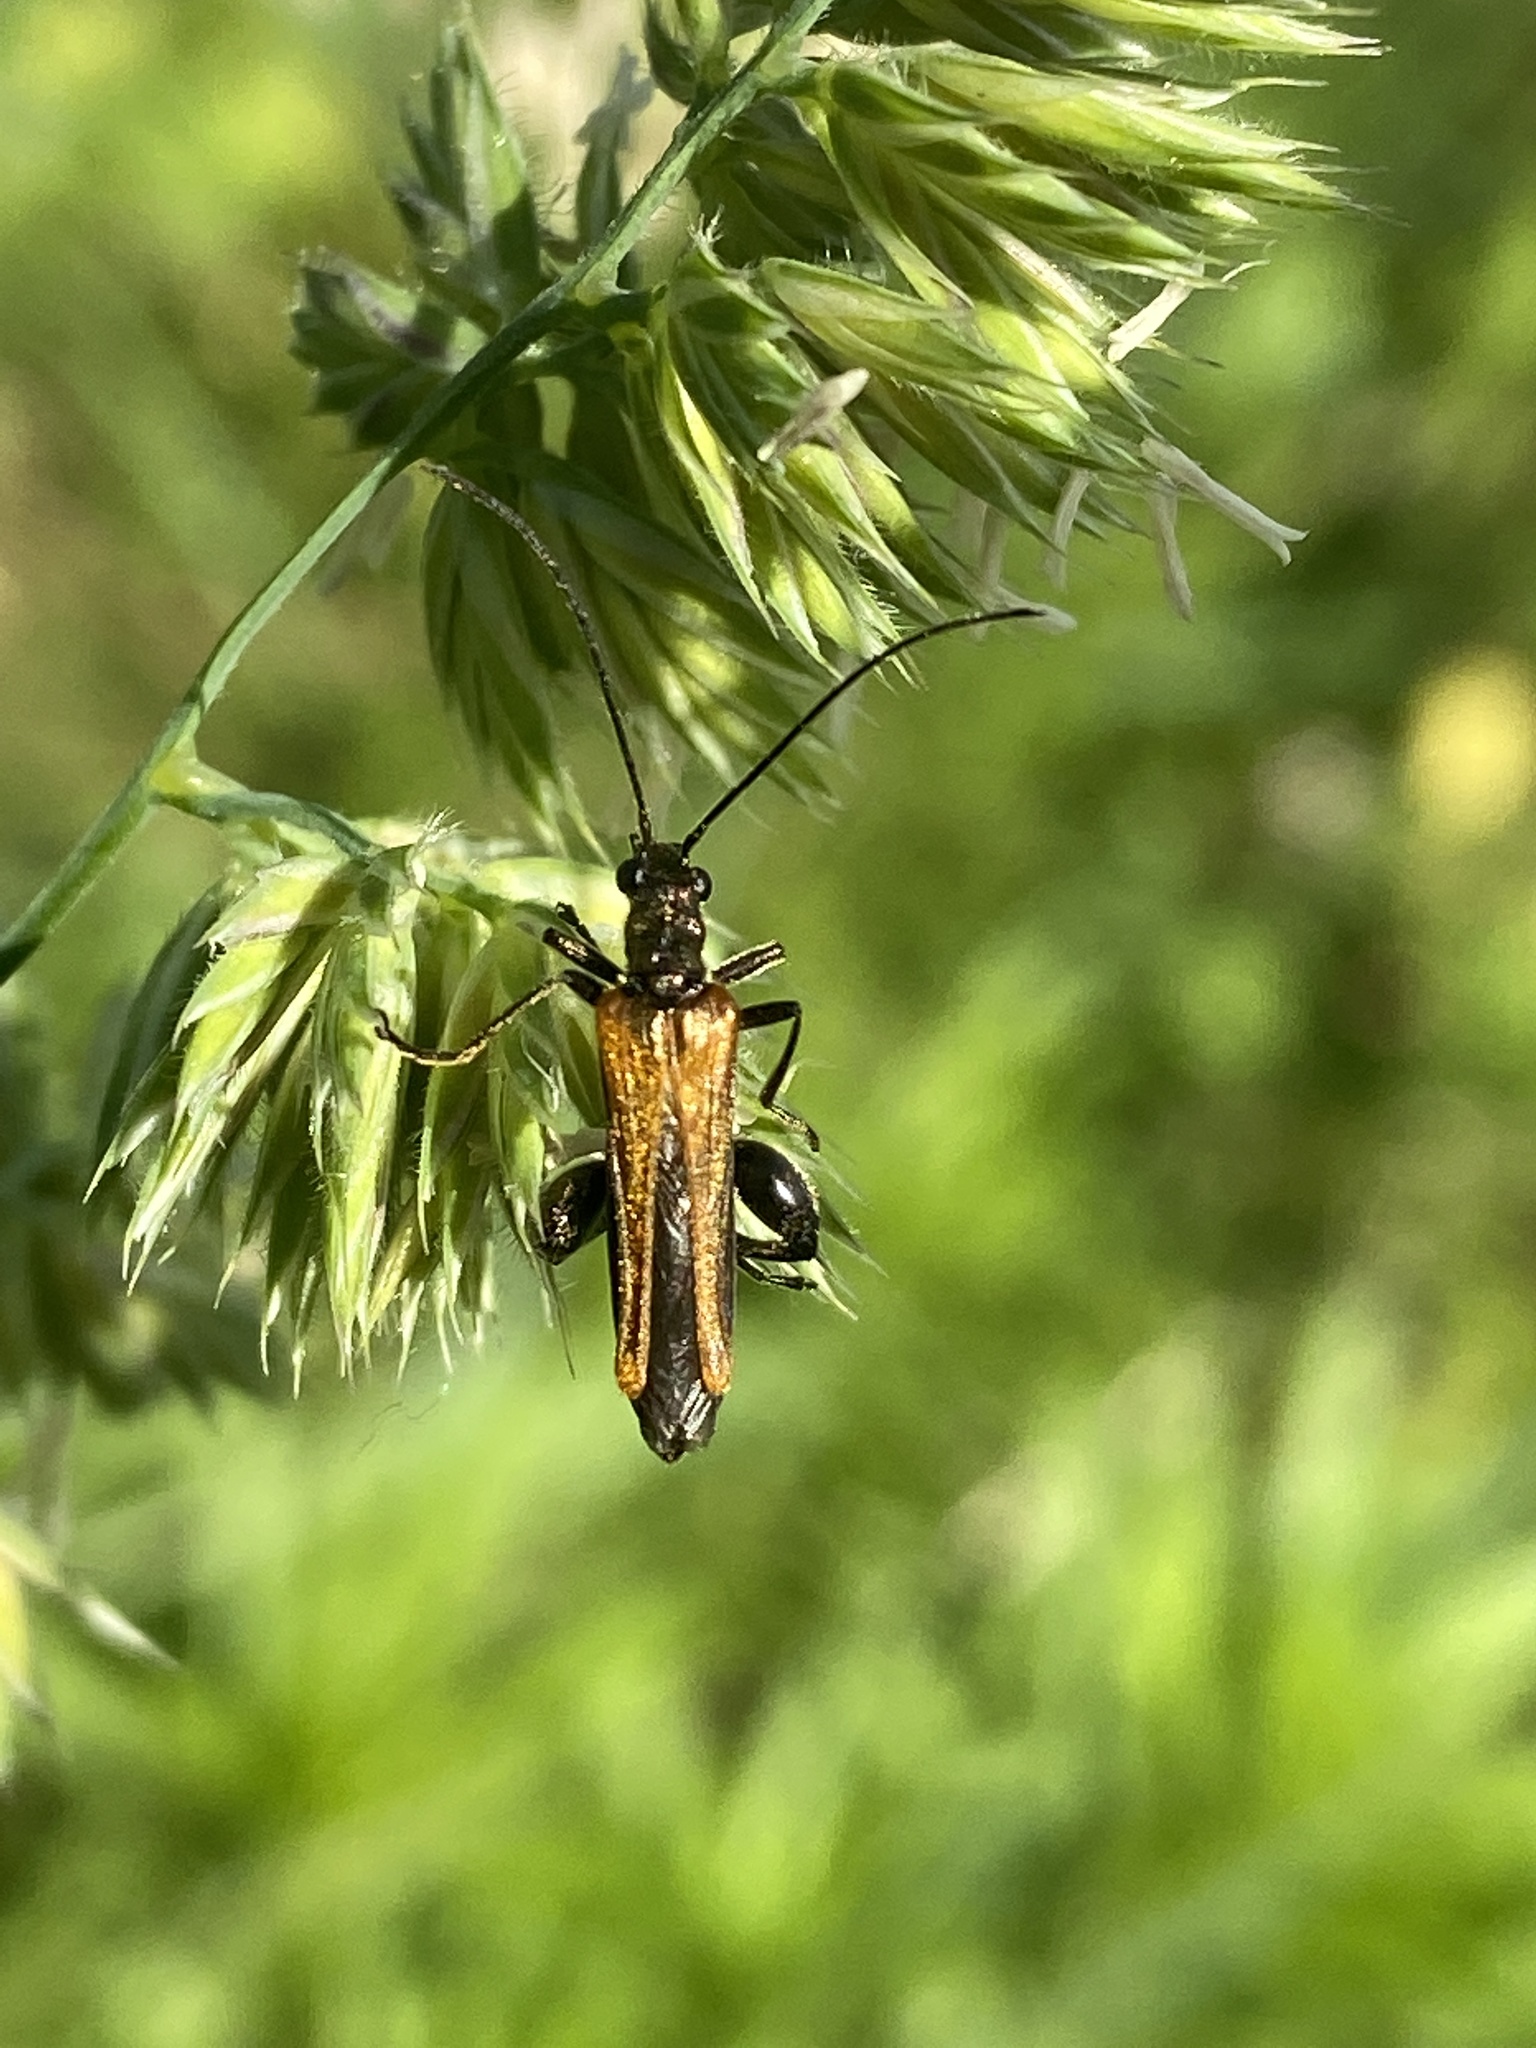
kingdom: Animalia
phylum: Arthropoda
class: Insecta
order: Coleoptera
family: Oedemeridae
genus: Oedemera
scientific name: Oedemera femorata
